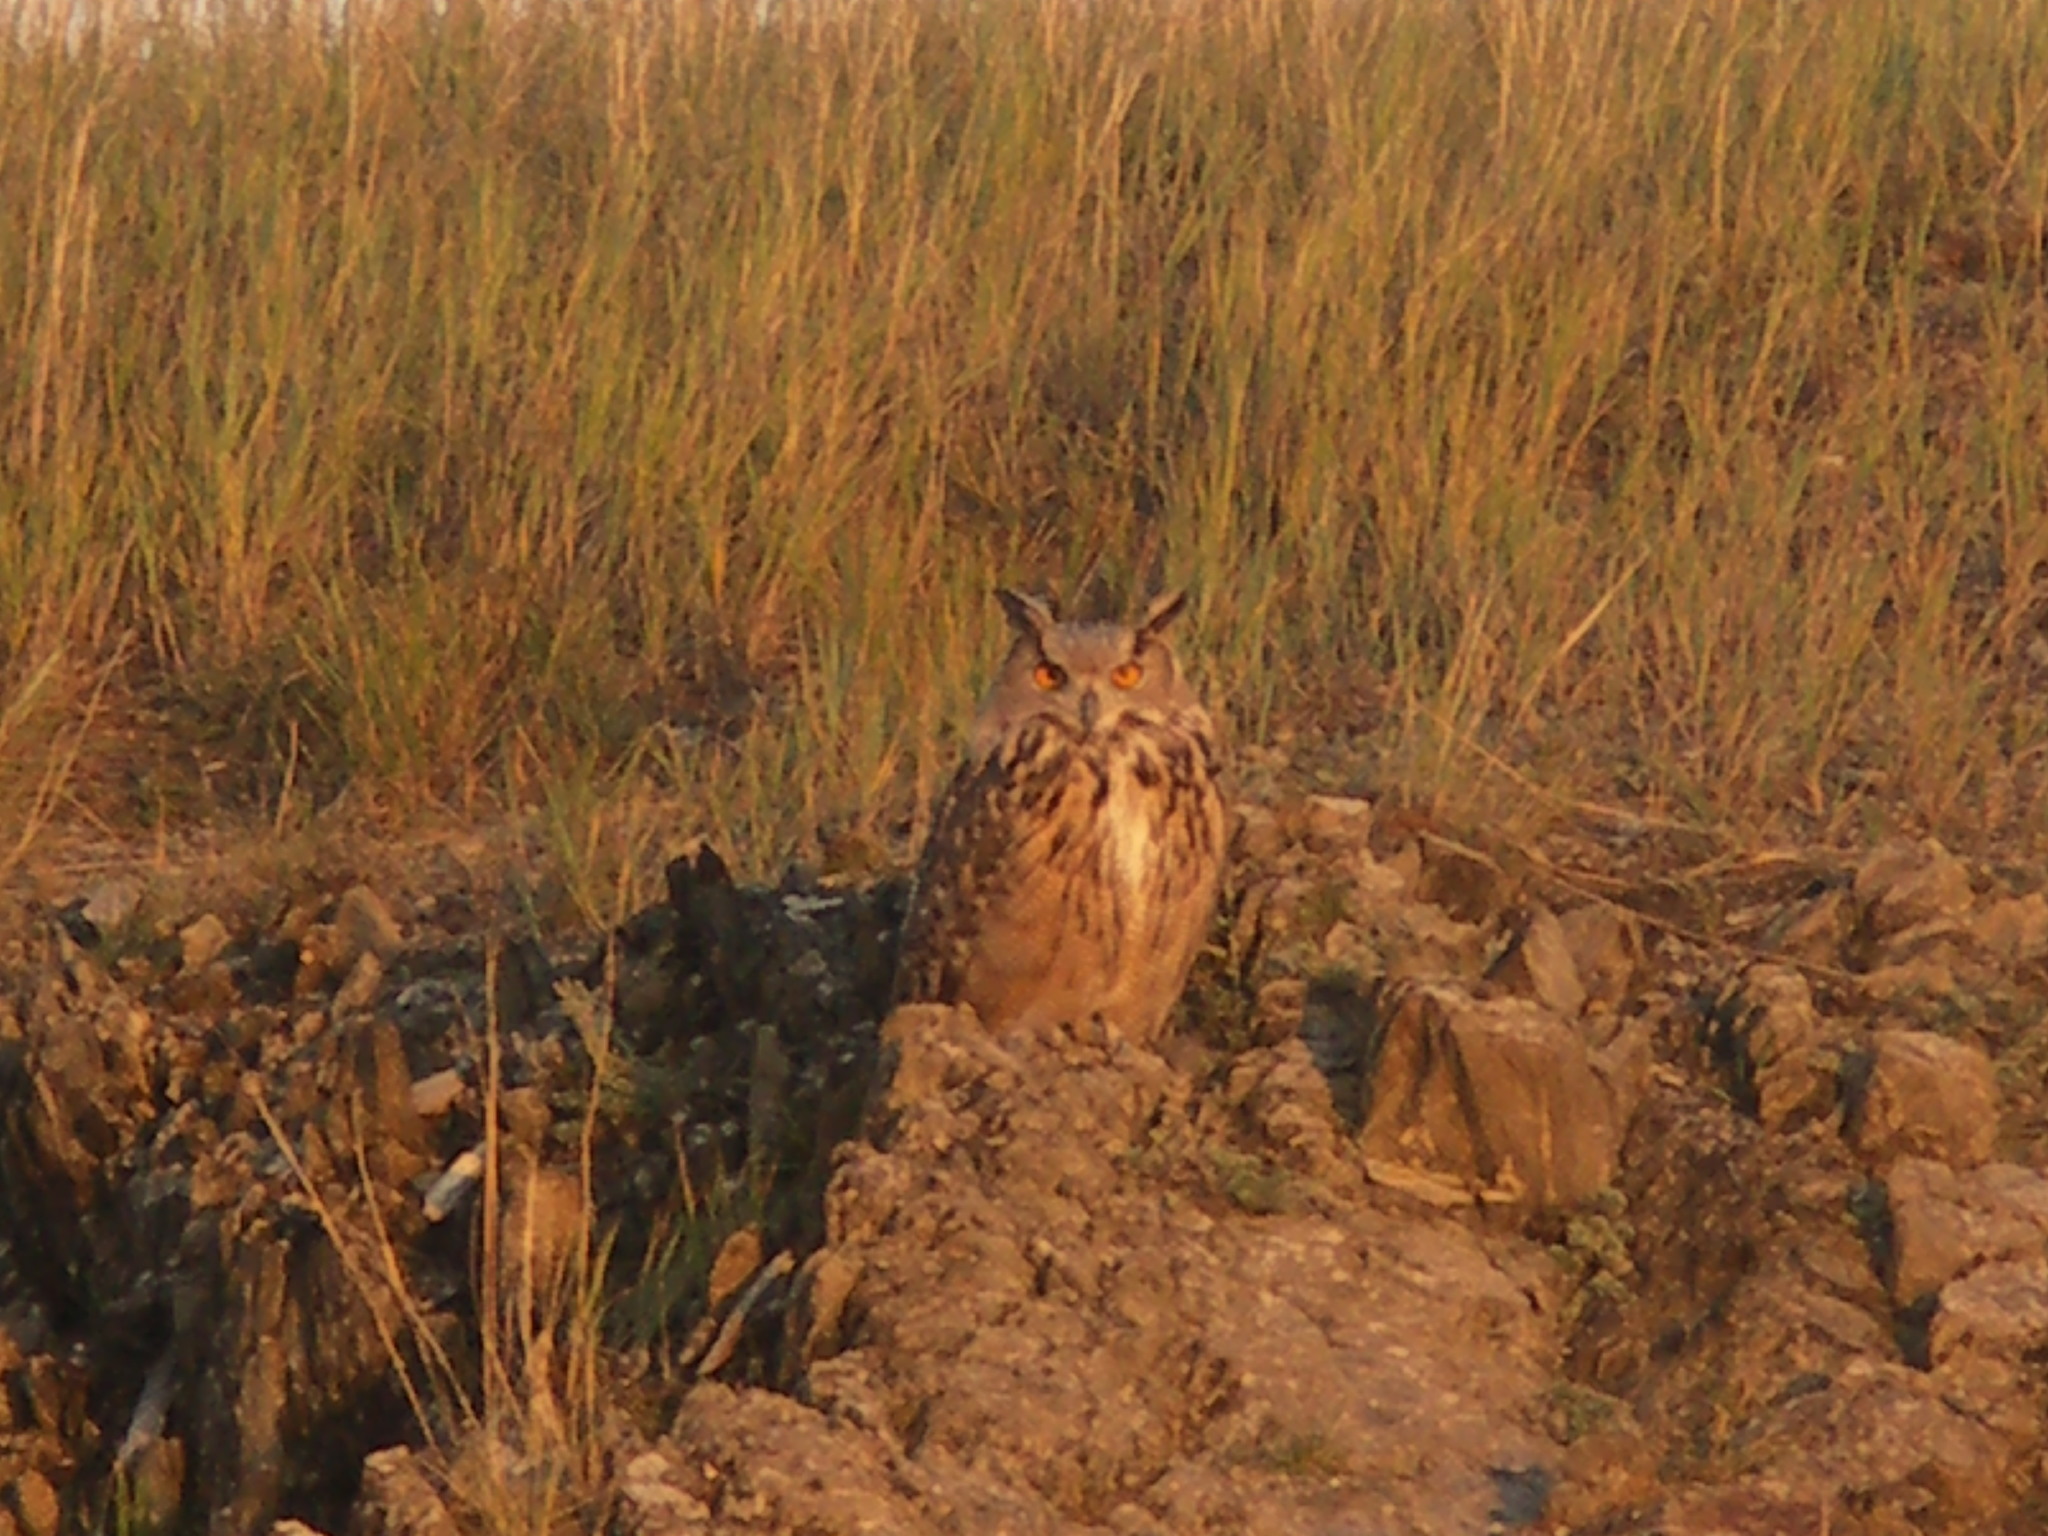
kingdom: Animalia
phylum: Chordata
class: Aves
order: Strigiformes
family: Strigidae
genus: Bubo
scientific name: Bubo bubo
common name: Eurasian eagle-owl
